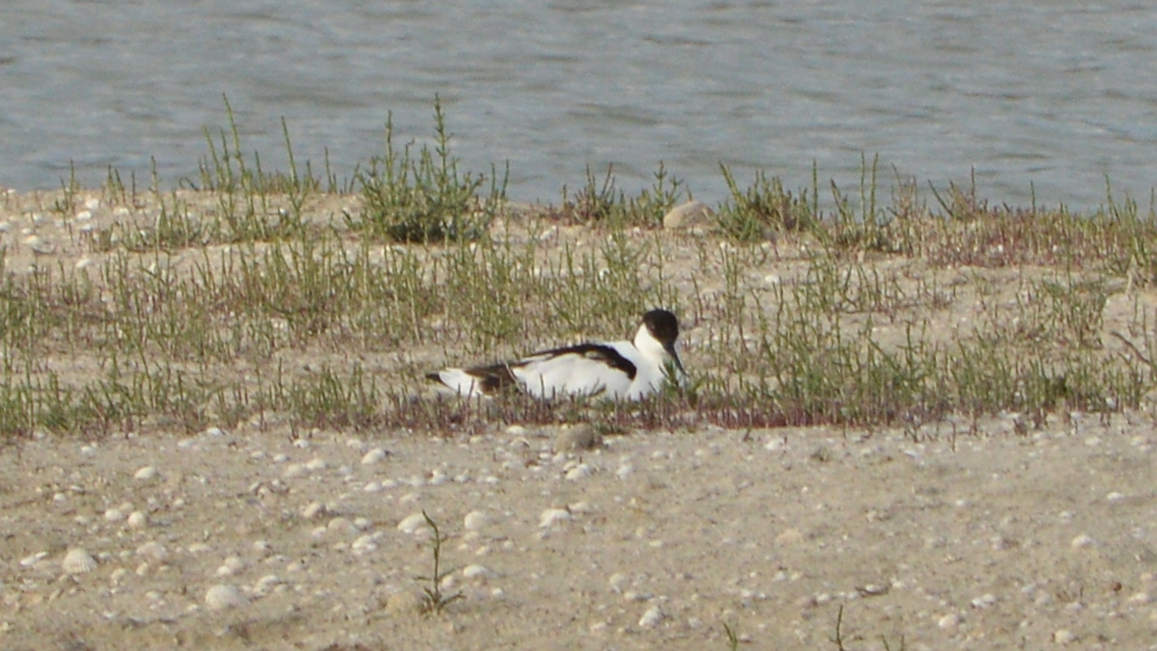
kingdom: Animalia
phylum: Chordata
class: Aves
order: Charadriiformes
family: Recurvirostridae
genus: Recurvirostra
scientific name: Recurvirostra avosetta
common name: Pied avocet
